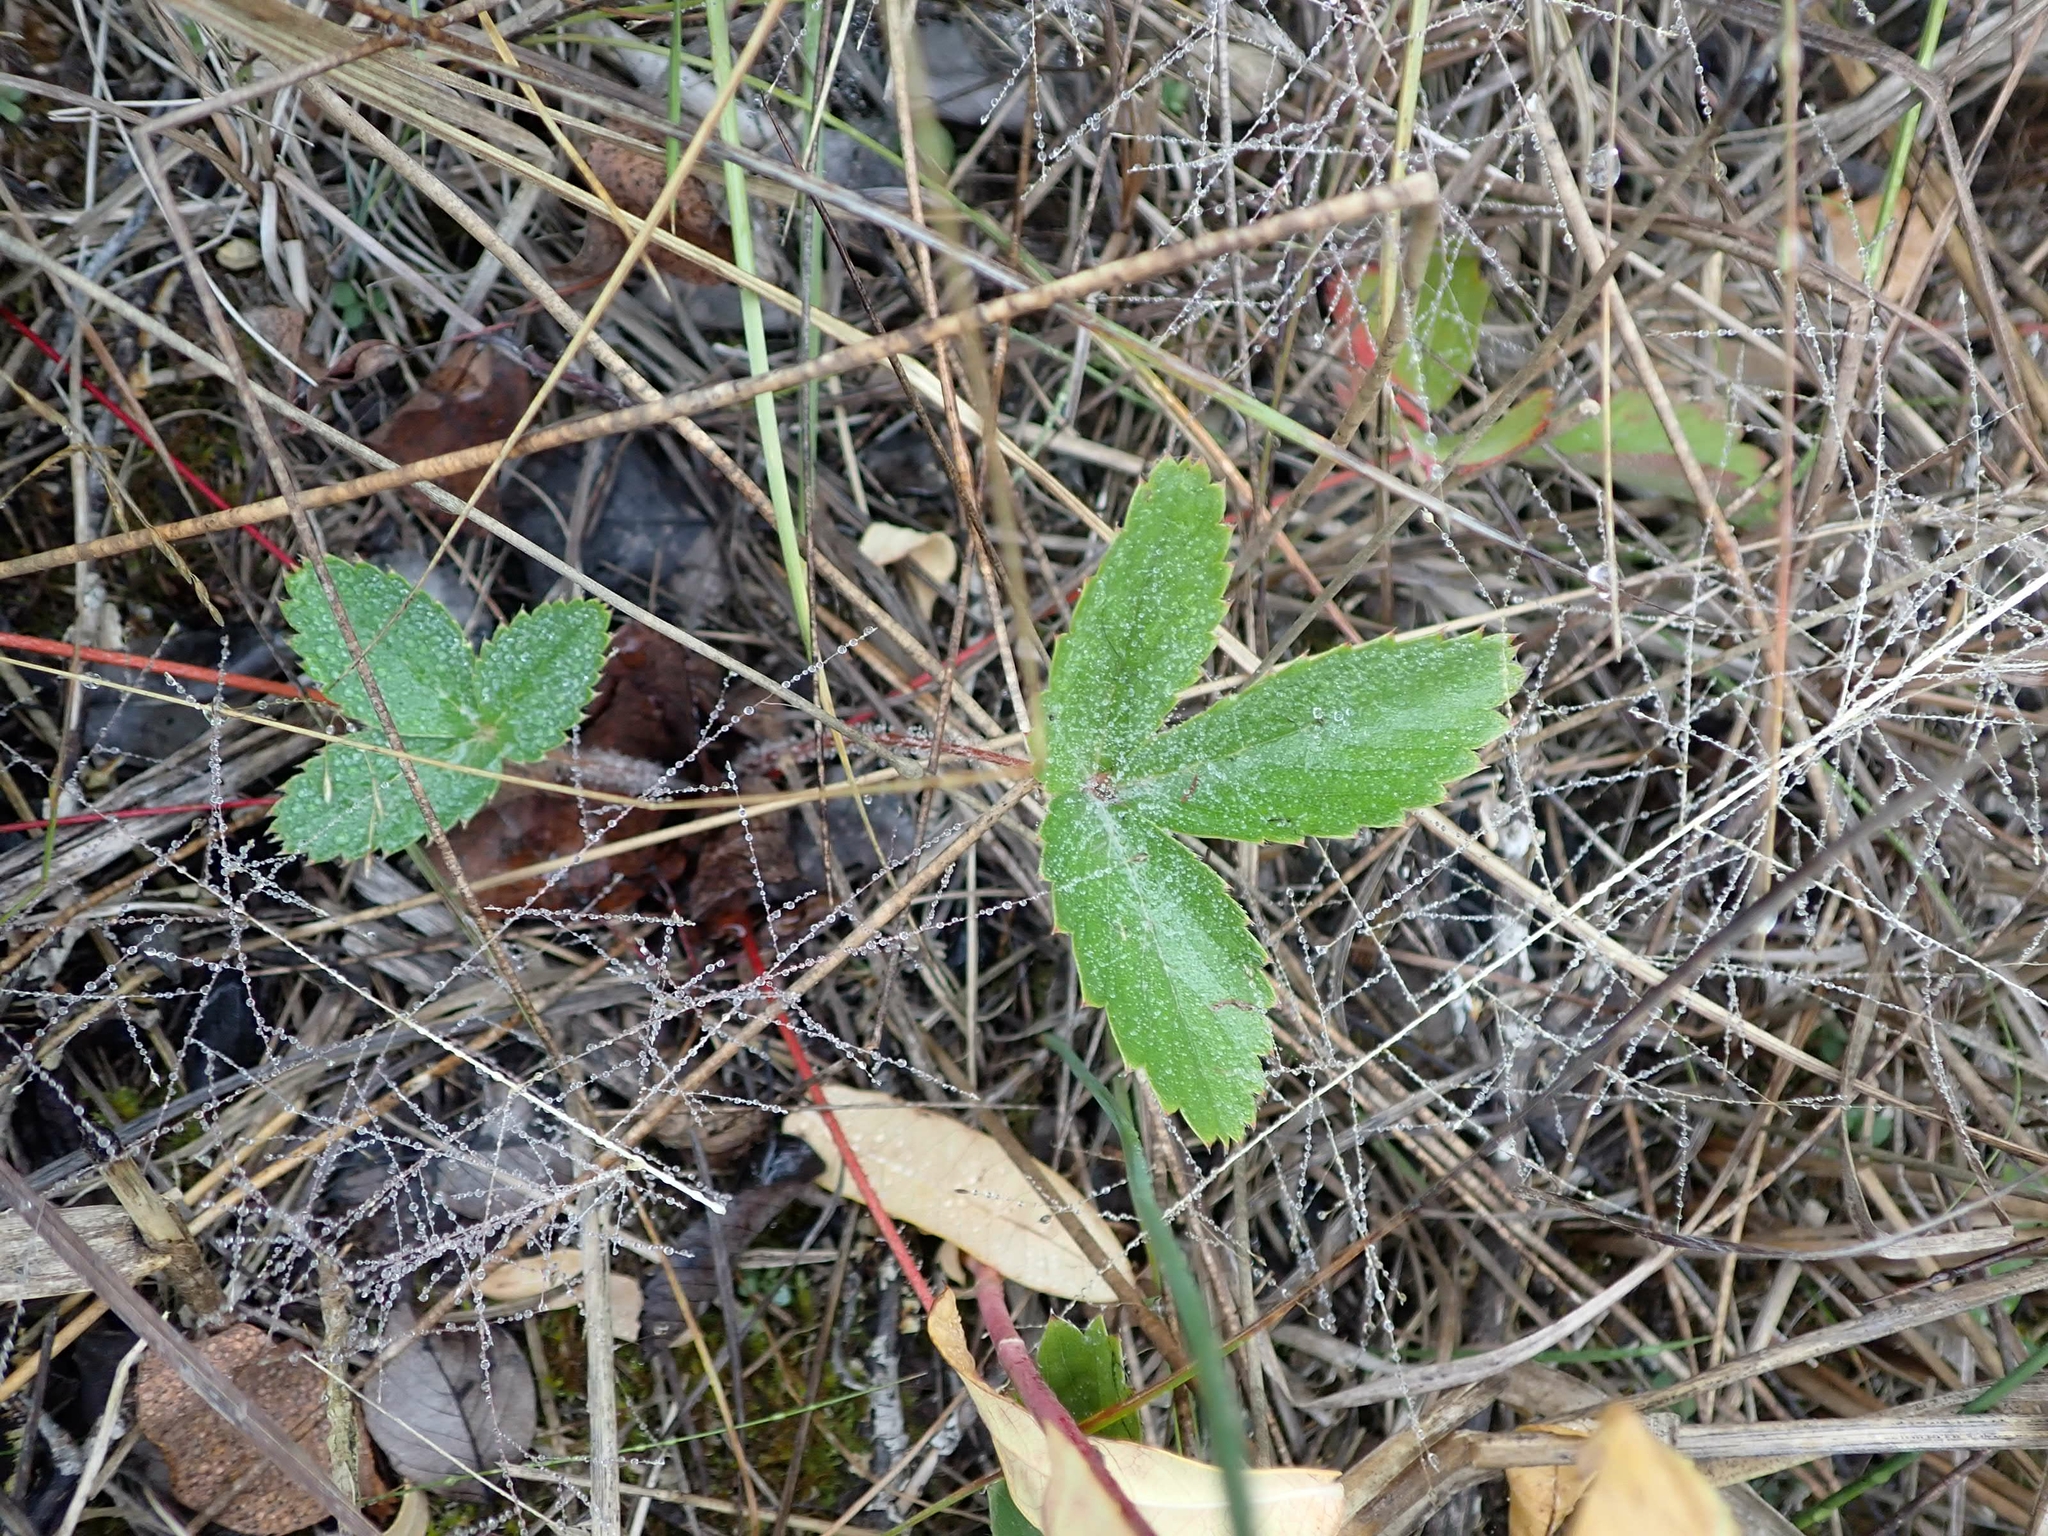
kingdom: Plantae
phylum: Tracheophyta
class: Magnoliopsida
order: Rosales
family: Rosaceae
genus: Fragaria
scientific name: Fragaria virginiana
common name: Thickleaved wild strawberry
